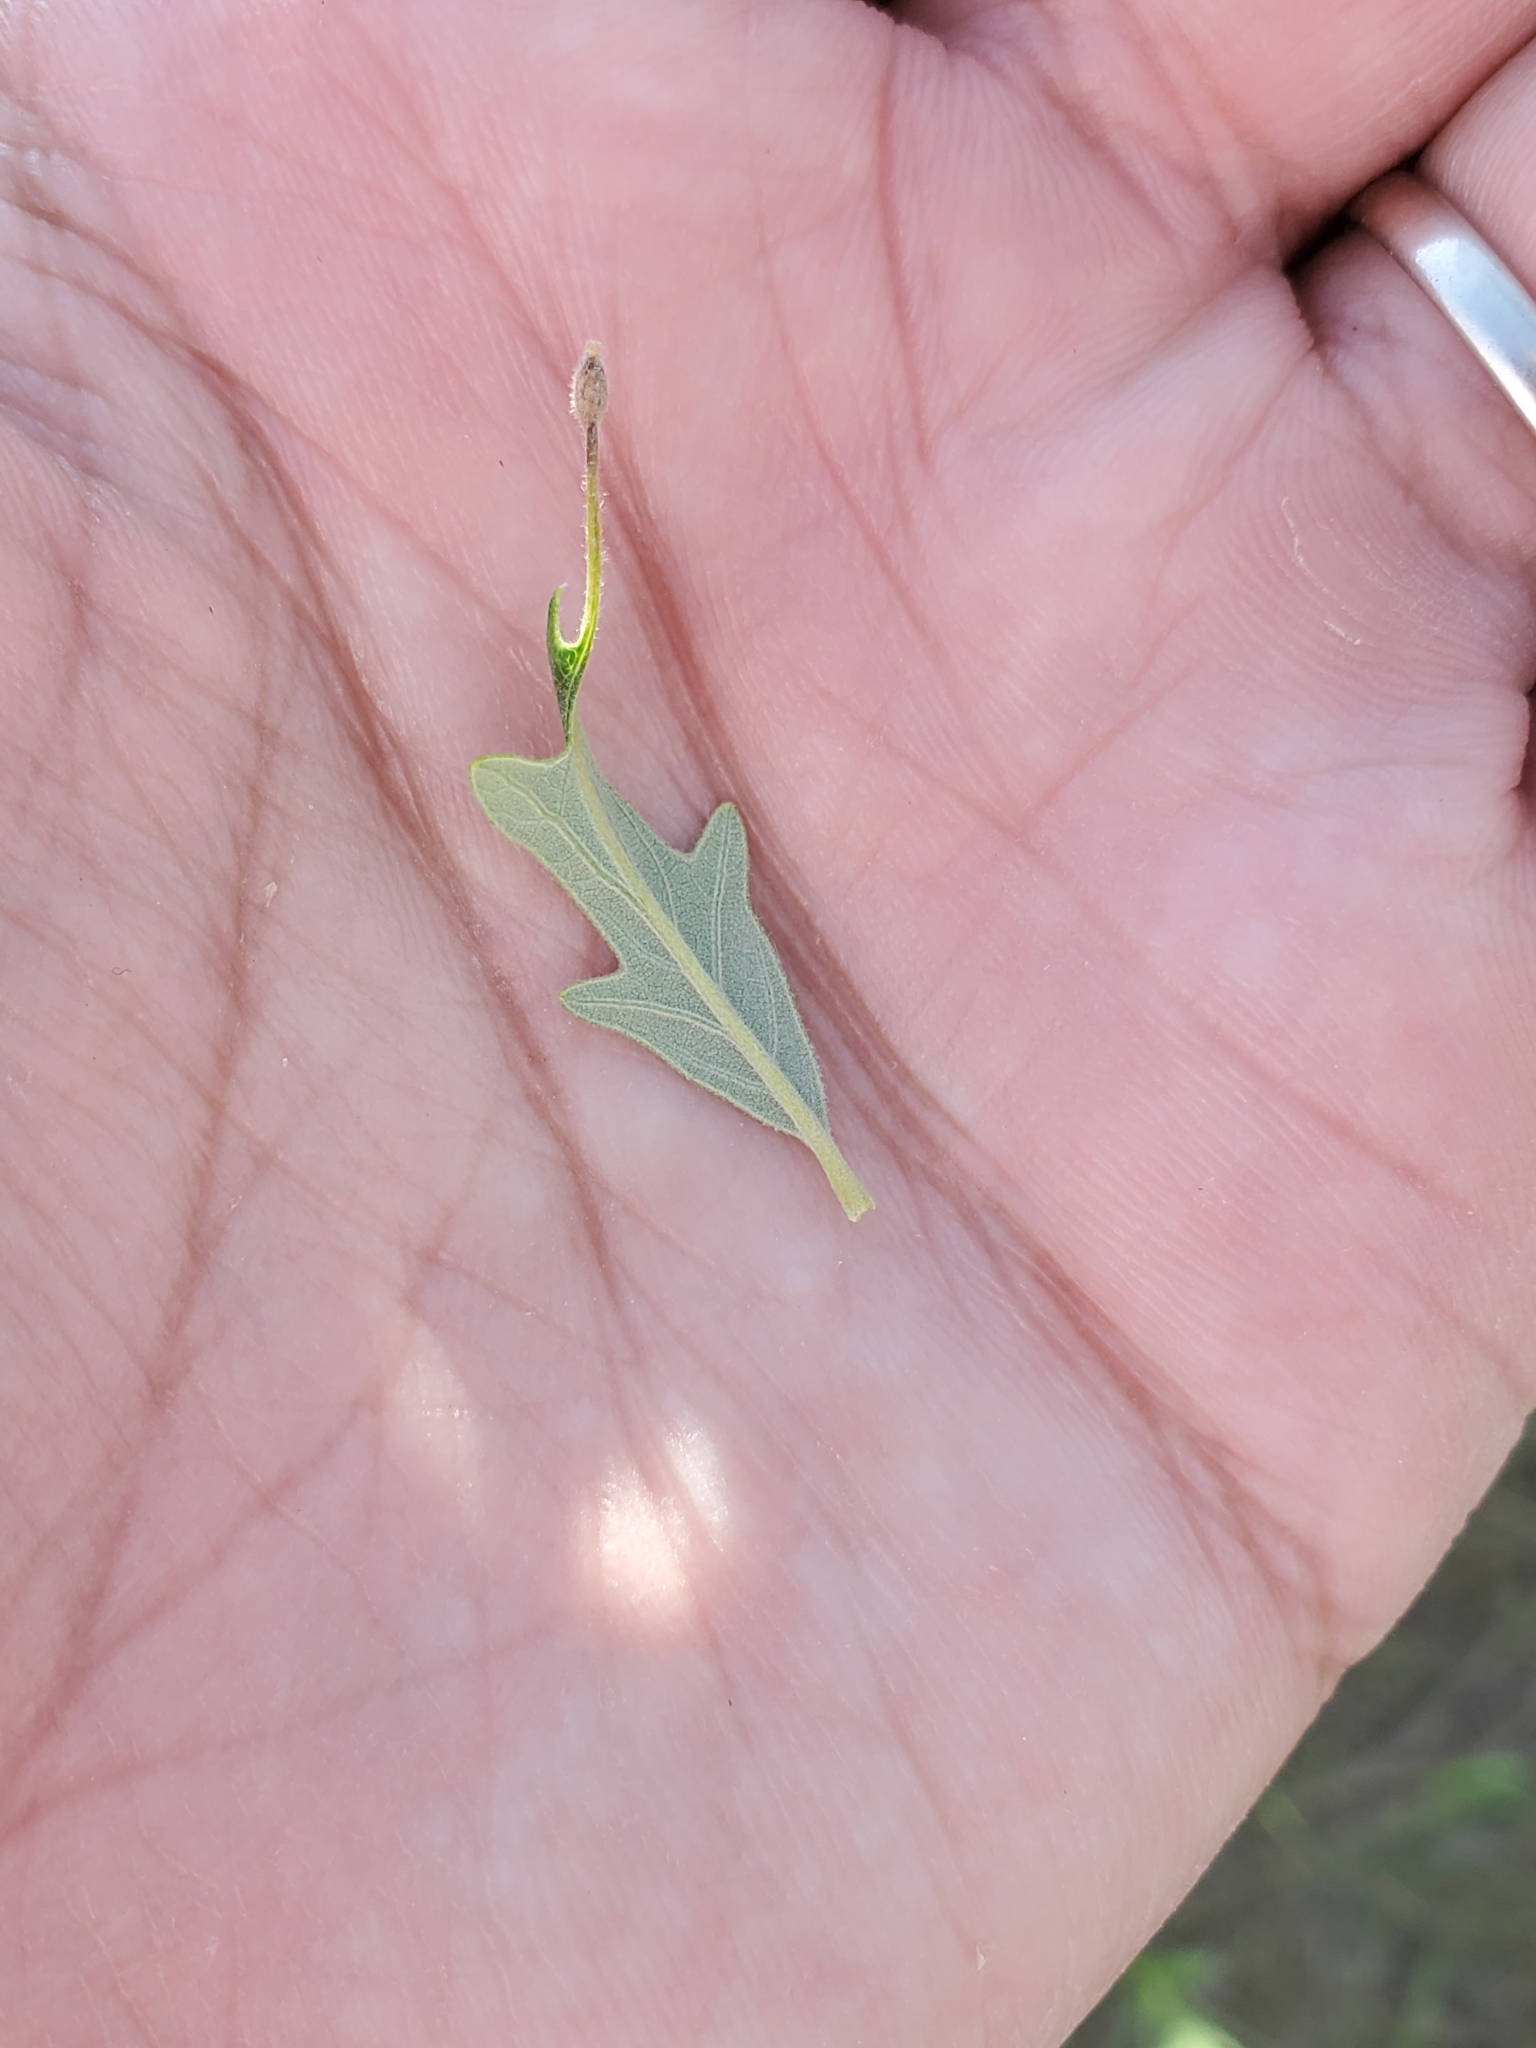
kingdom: Animalia
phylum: Arthropoda
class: Insecta
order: Hymenoptera
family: Cynipidae
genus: Andricus
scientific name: Andricus
